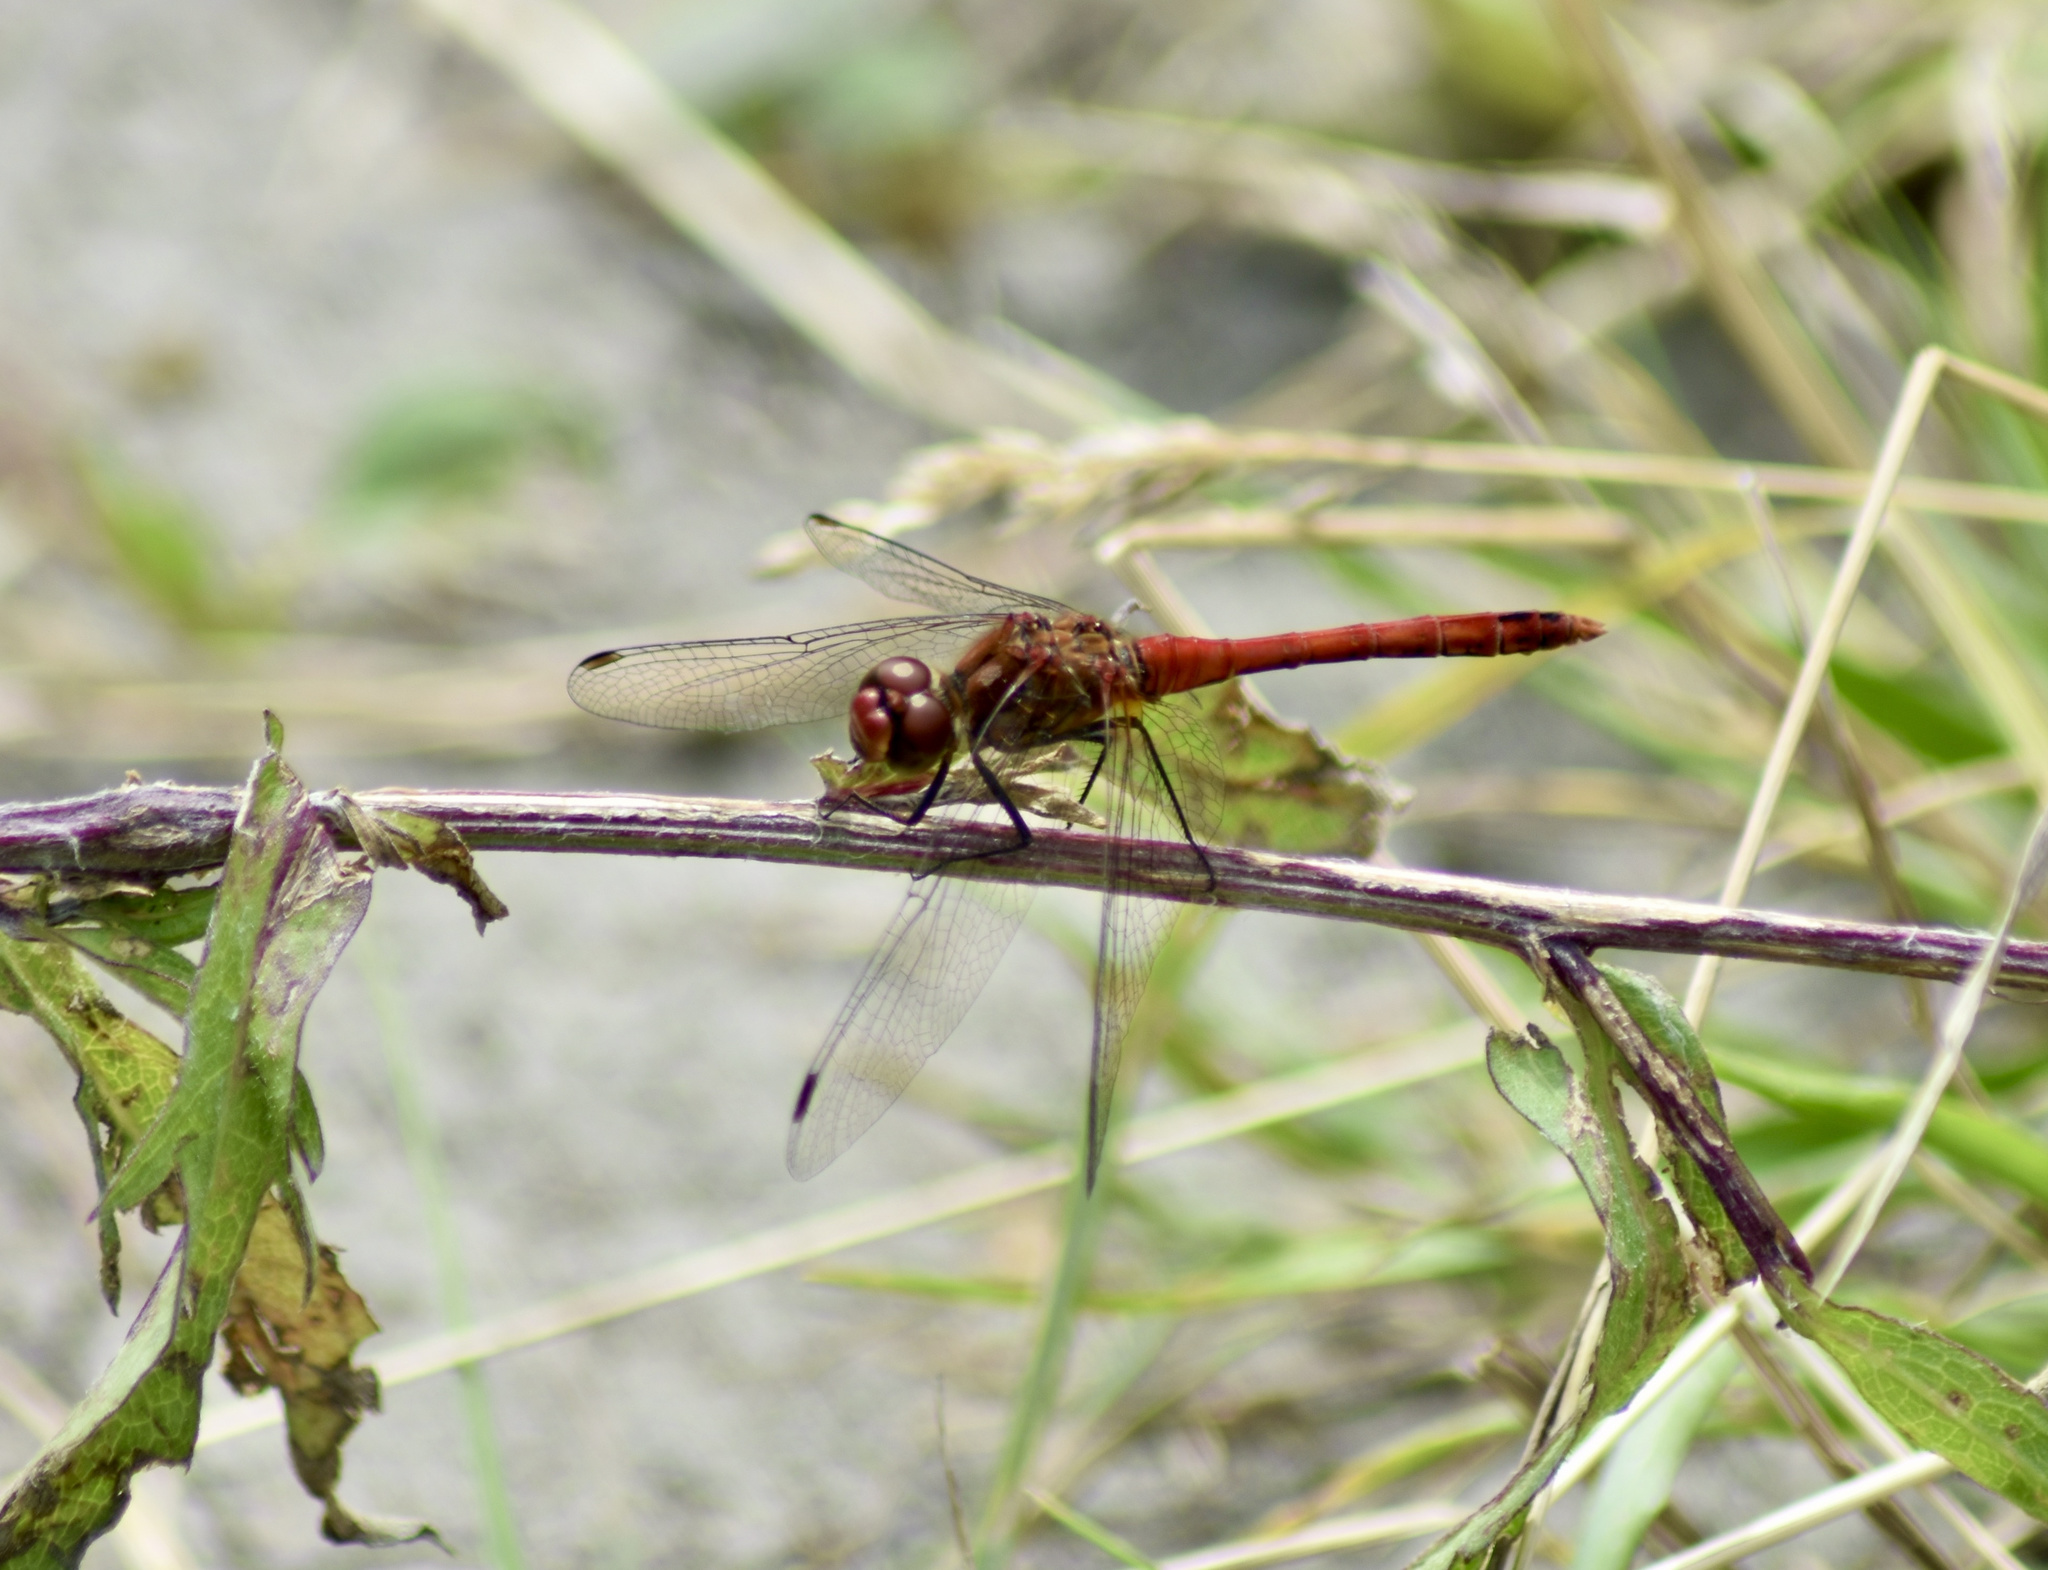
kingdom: Animalia
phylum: Arthropoda
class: Insecta
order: Odonata
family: Libellulidae
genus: Sympetrum
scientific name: Sympetrum sanguineum
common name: Ruddy darter
